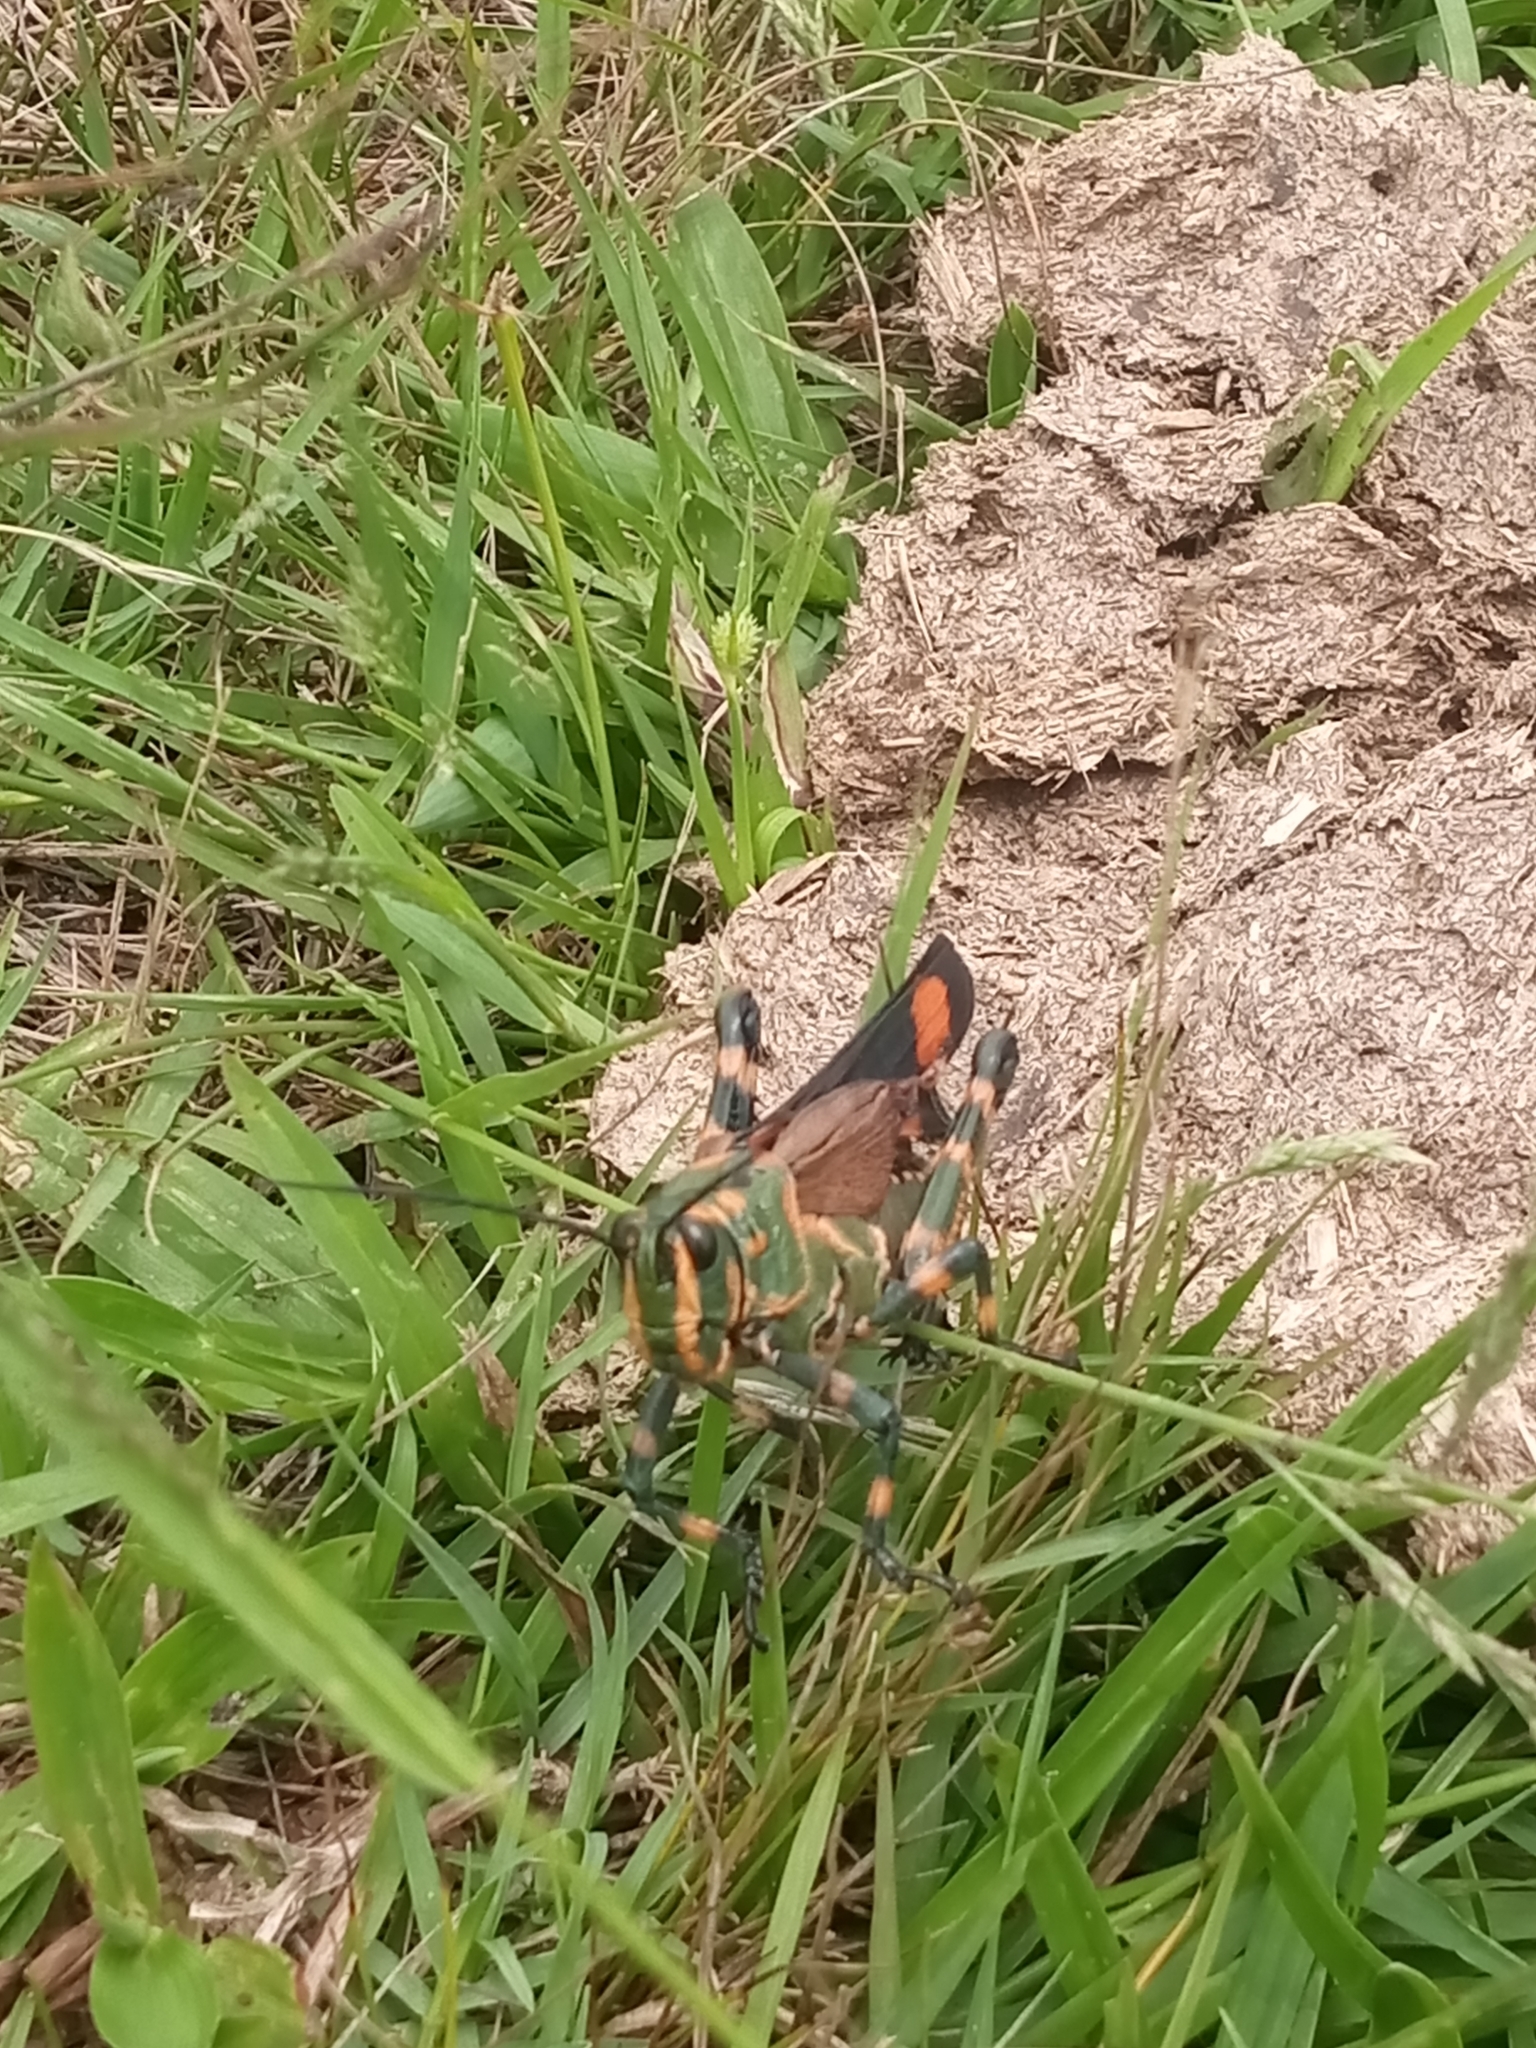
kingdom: Animalia
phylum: Arthropoda
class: Insecta
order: Orthoptera
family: Romaleidae
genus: Chromacris
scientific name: Chromacris speciosa
